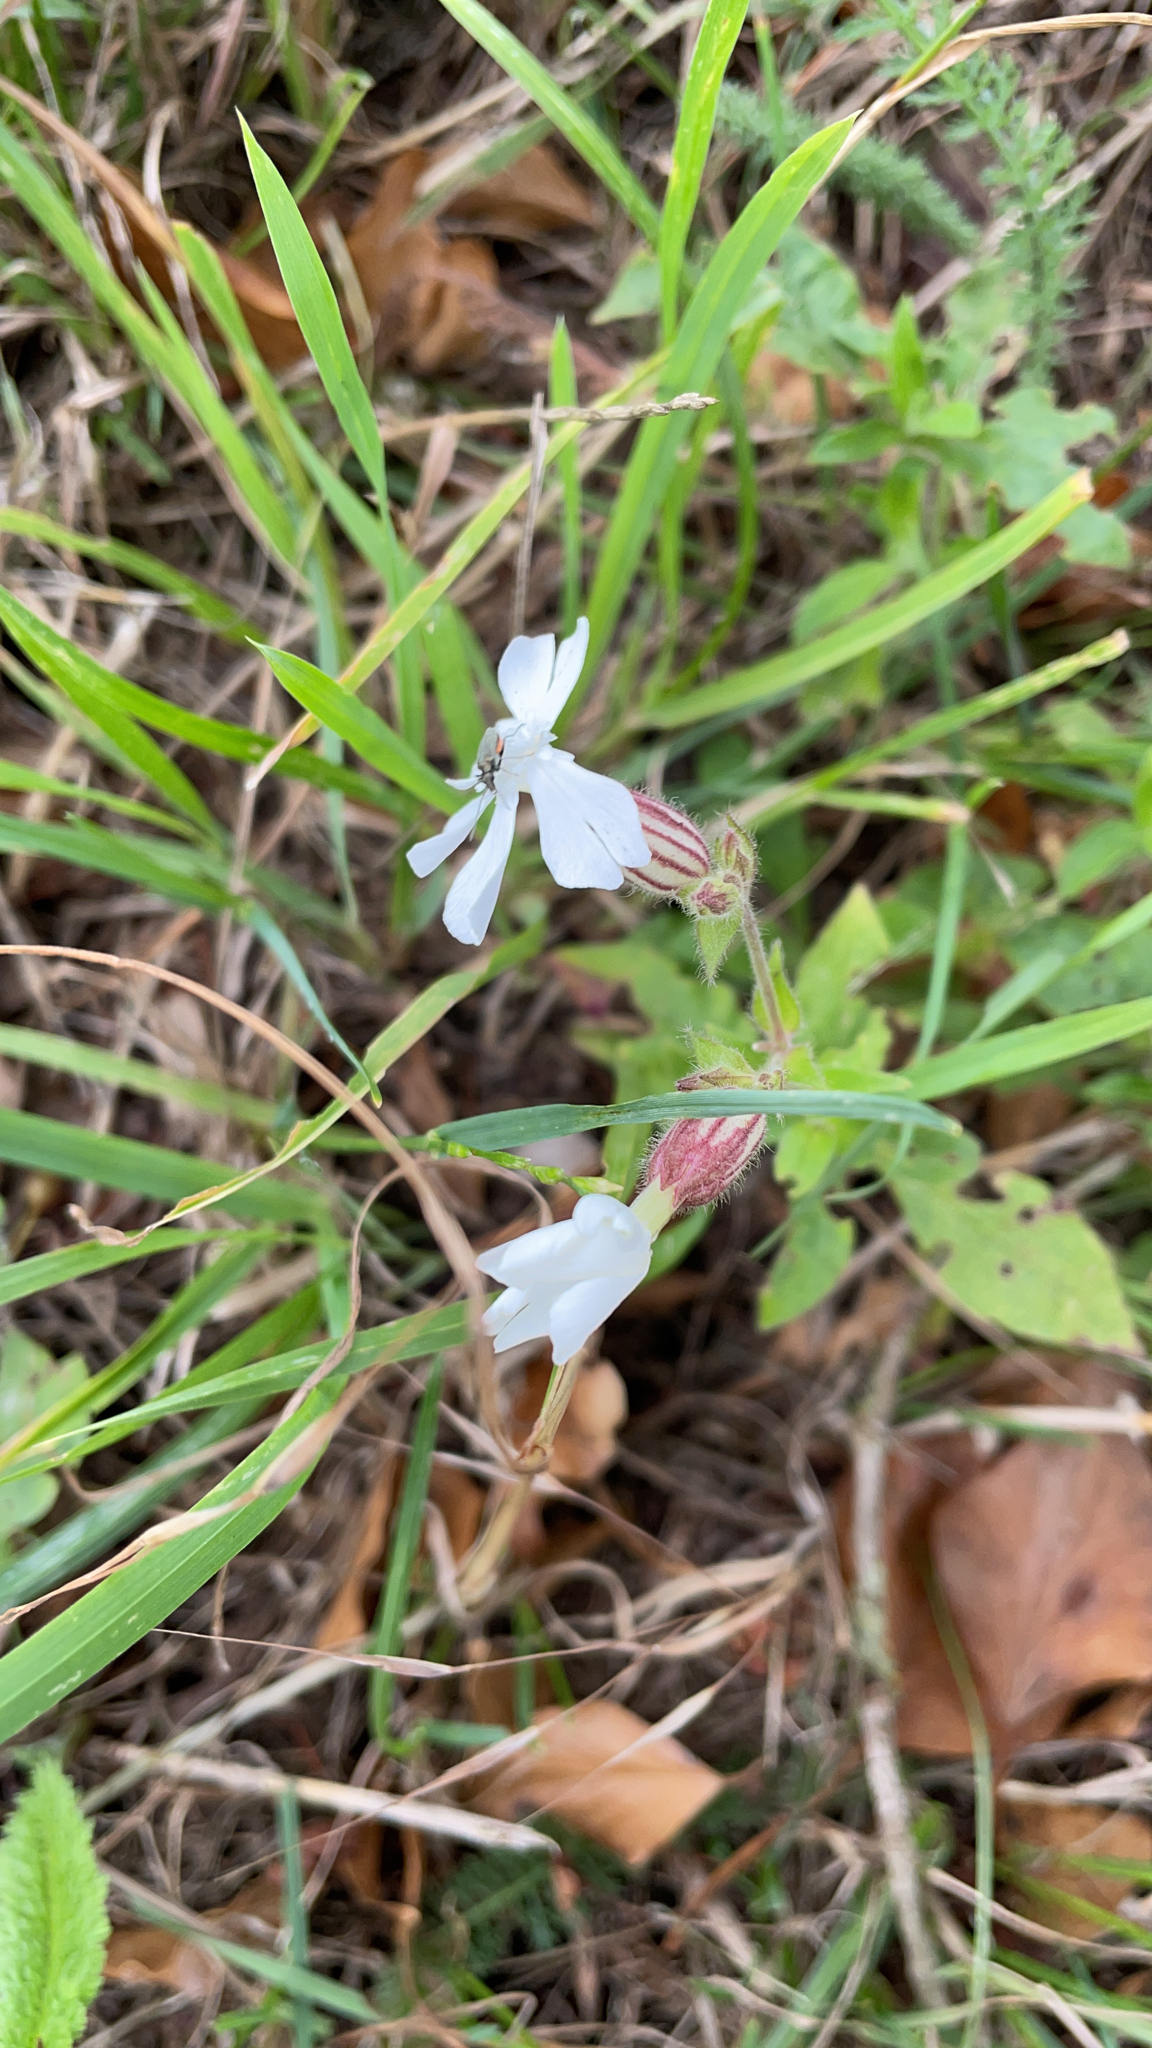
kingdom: Plantae
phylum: Tracheophyta
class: Magnoliopsida
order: Caryophyllales
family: Caryophyllaceae
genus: Silene
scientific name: Silene latifolia
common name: White campion
